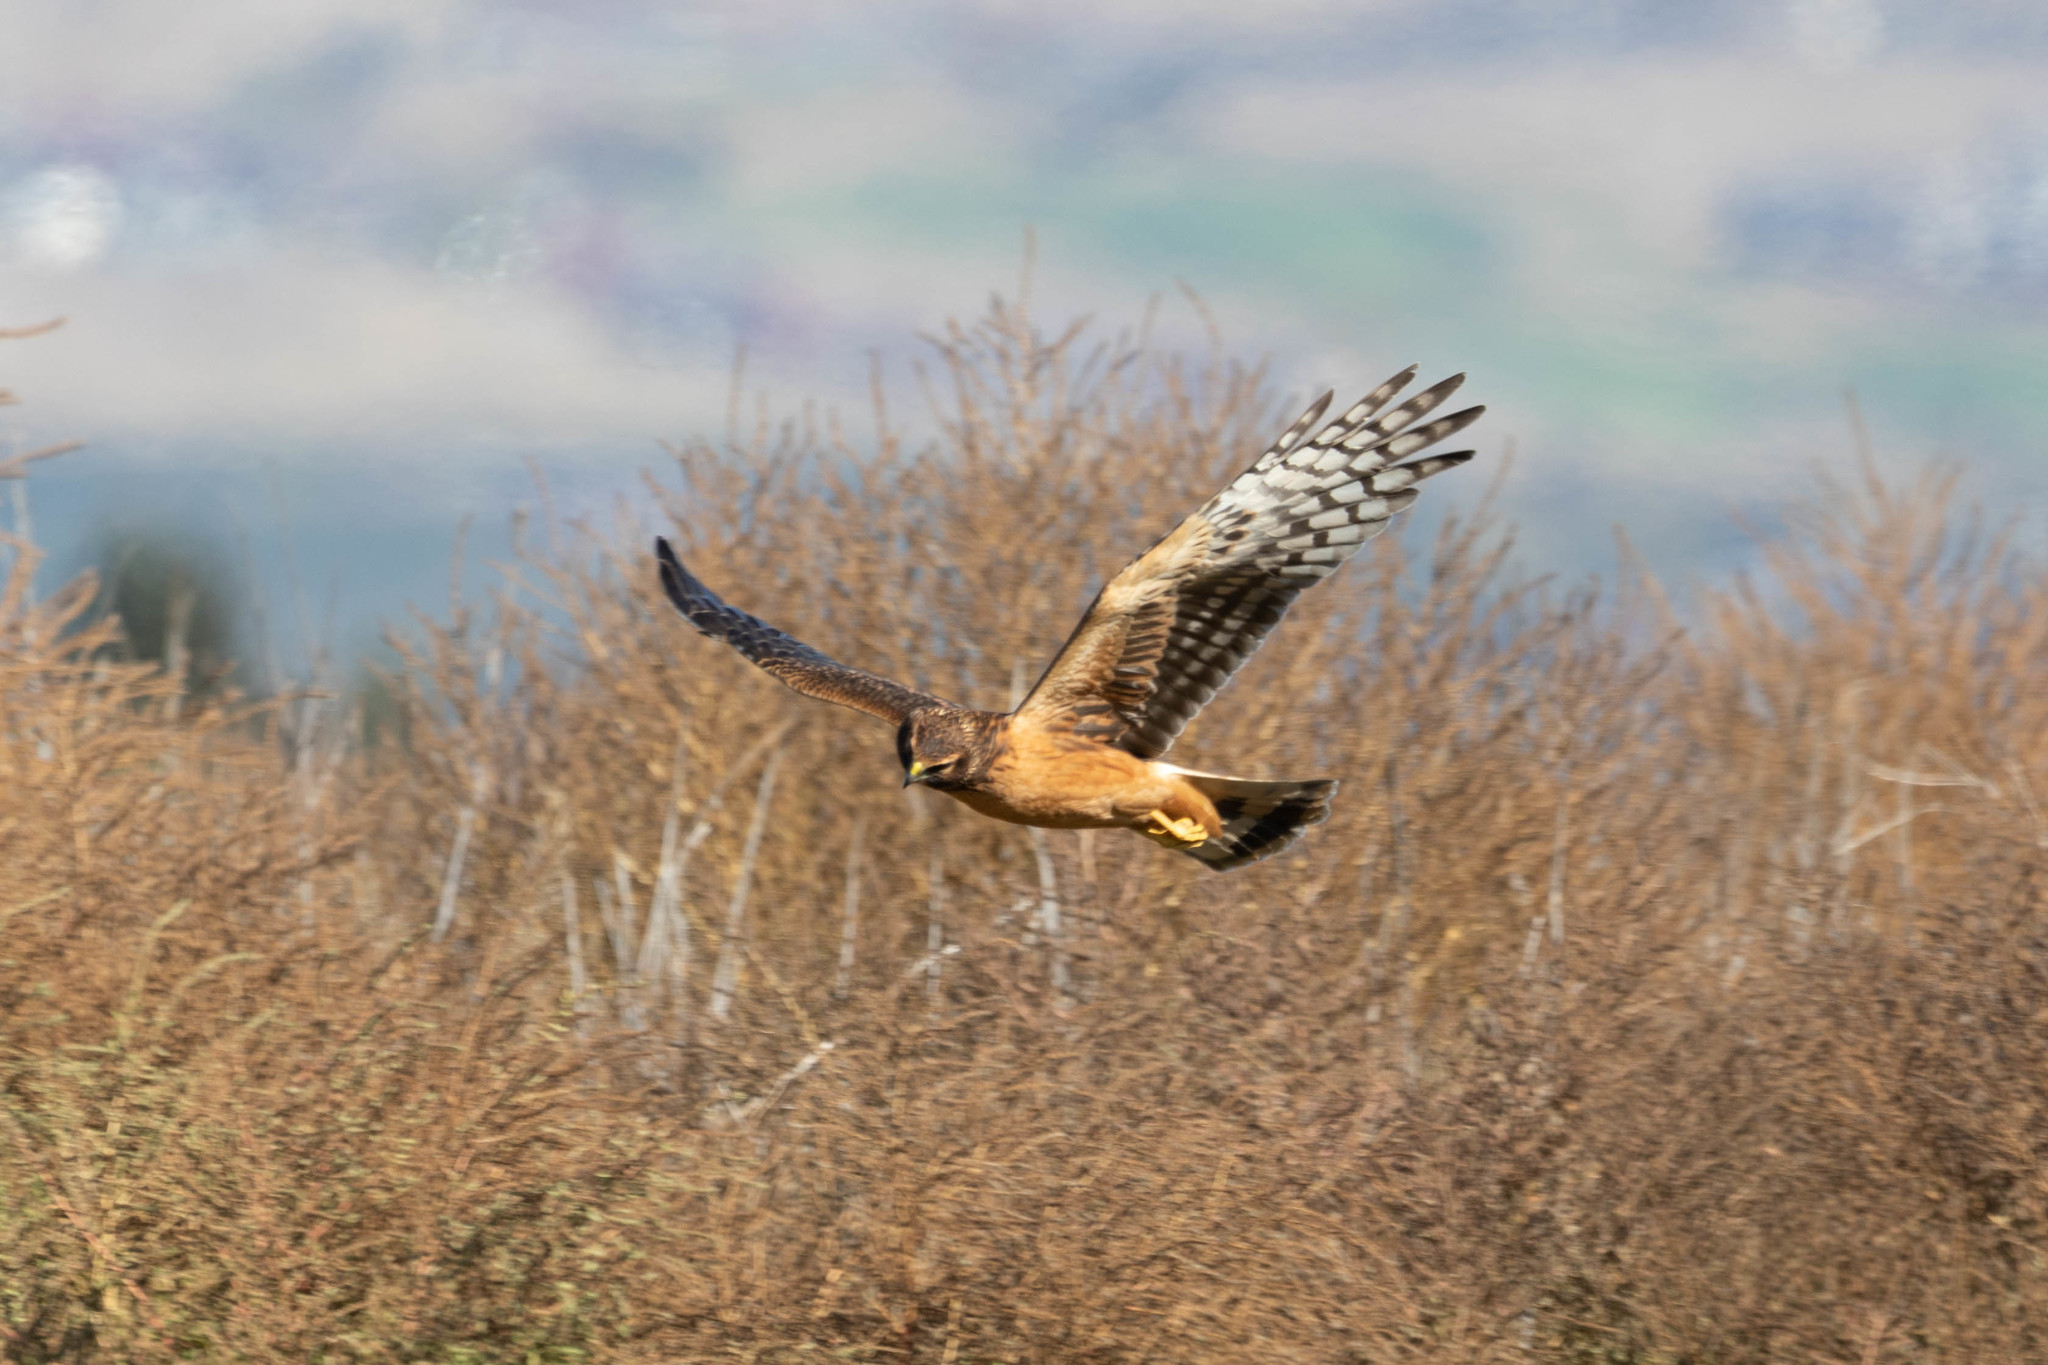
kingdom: Animalia
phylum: Chordata
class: Aves
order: Accipitriformes
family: Accipitridae
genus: Circus
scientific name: Circus cyaneus
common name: Hen harrier
